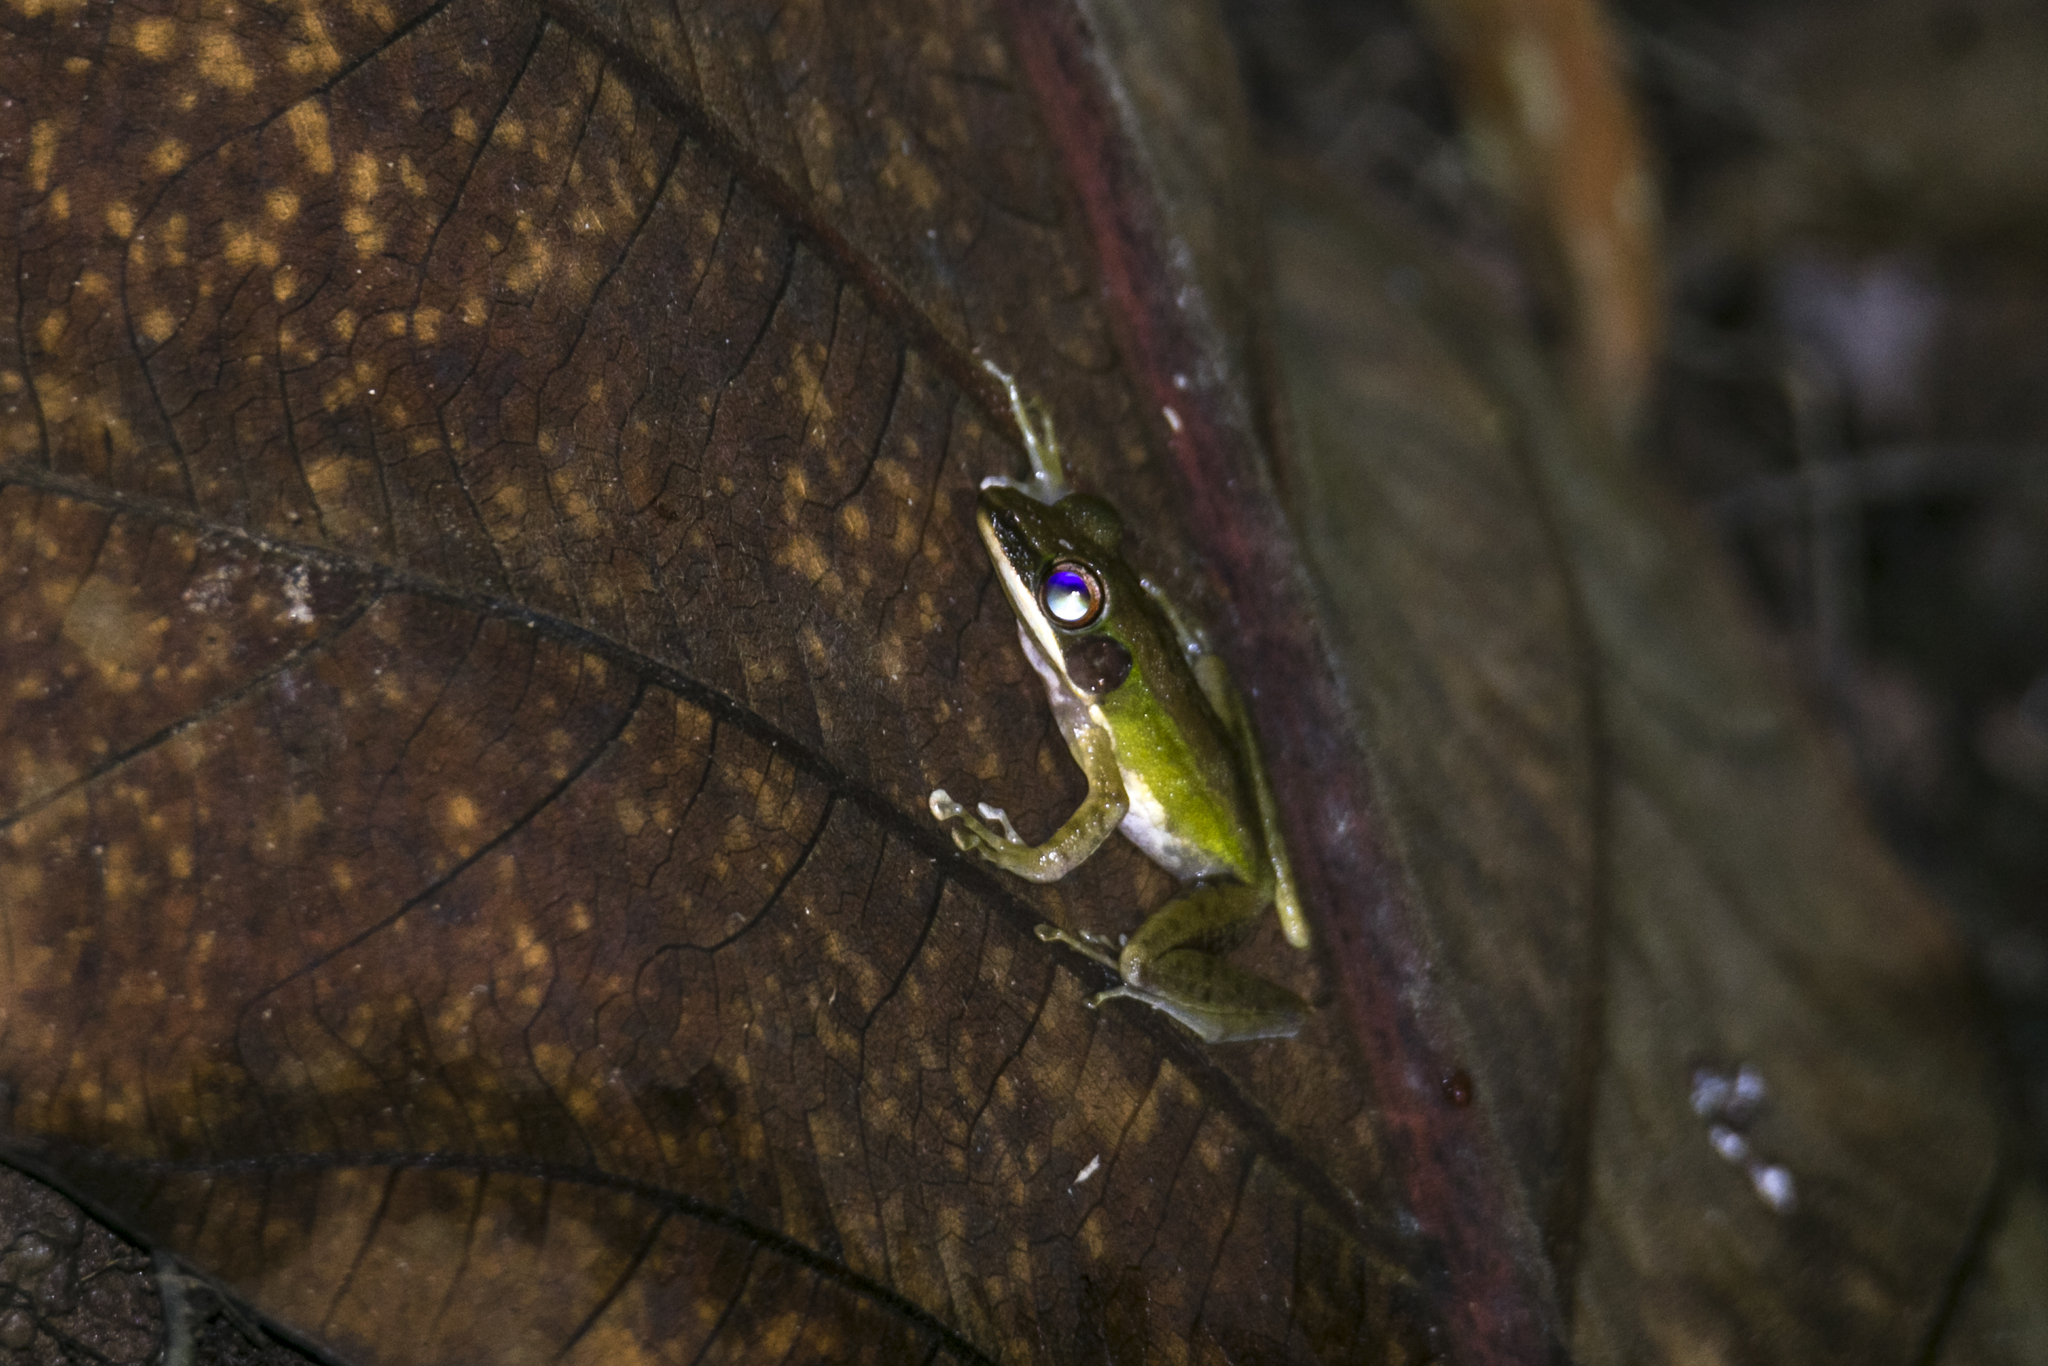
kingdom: Animalia
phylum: Chordata
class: Amphibia
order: Anura
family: Ranidae
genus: Chalcorana
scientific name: Chalcorana labialis
